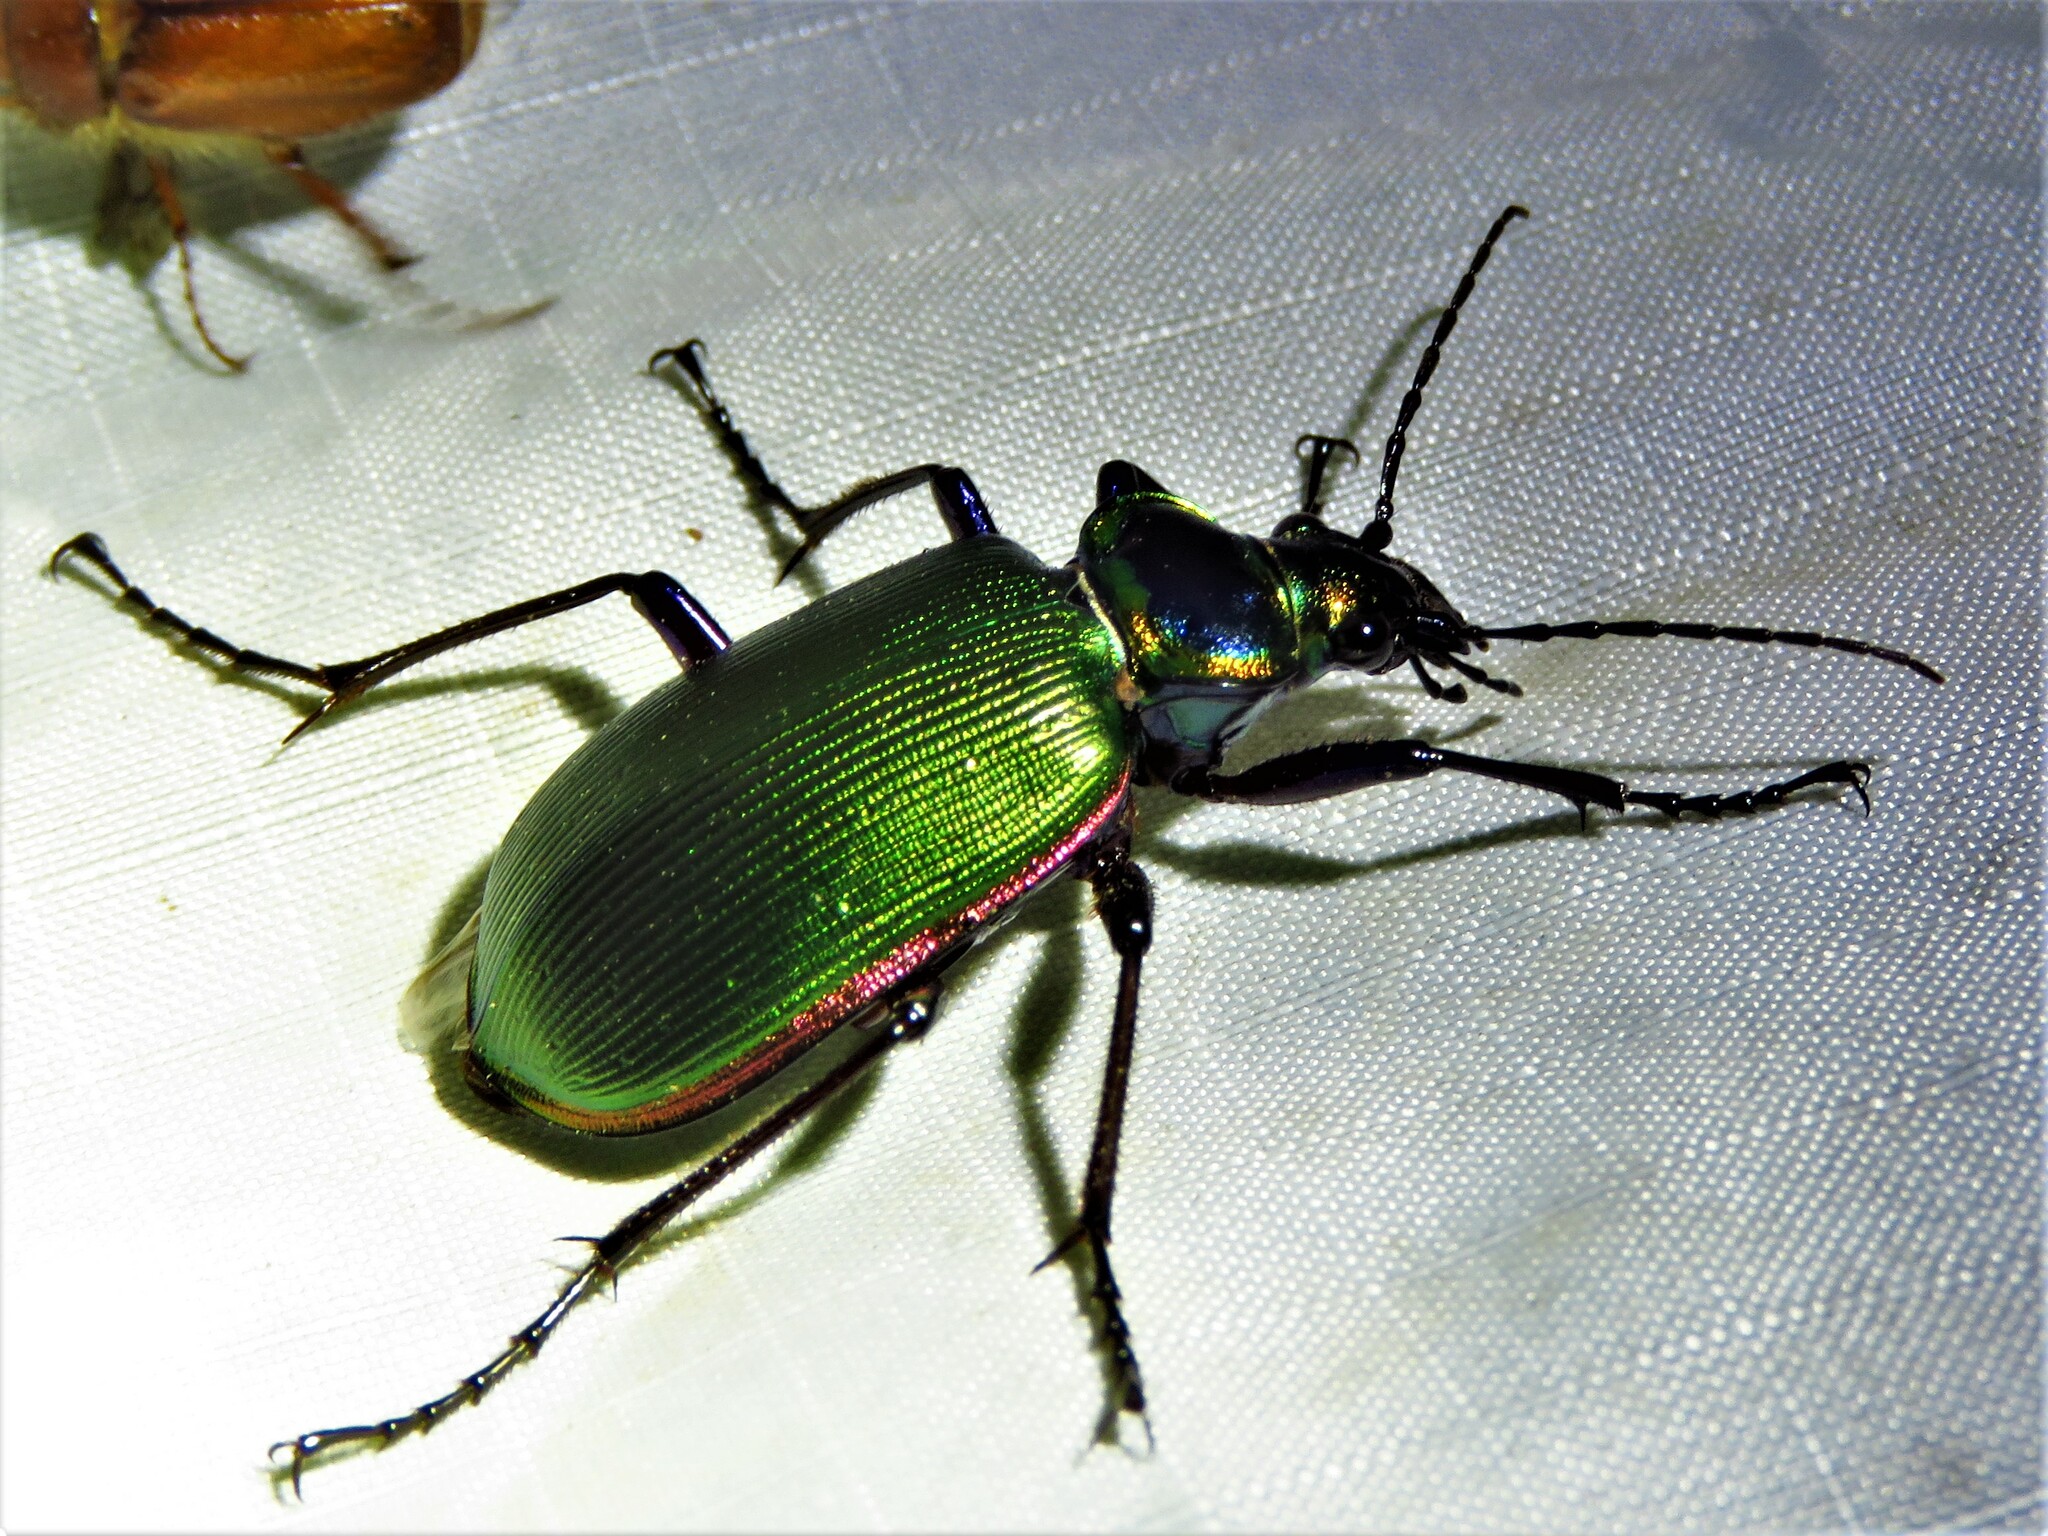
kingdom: Animalia
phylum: Arthropoda
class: Insecta
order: Coleoptera
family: Carabidae
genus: Calosoma
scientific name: Calosoma scrutator
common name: Fiery searcher beetle
